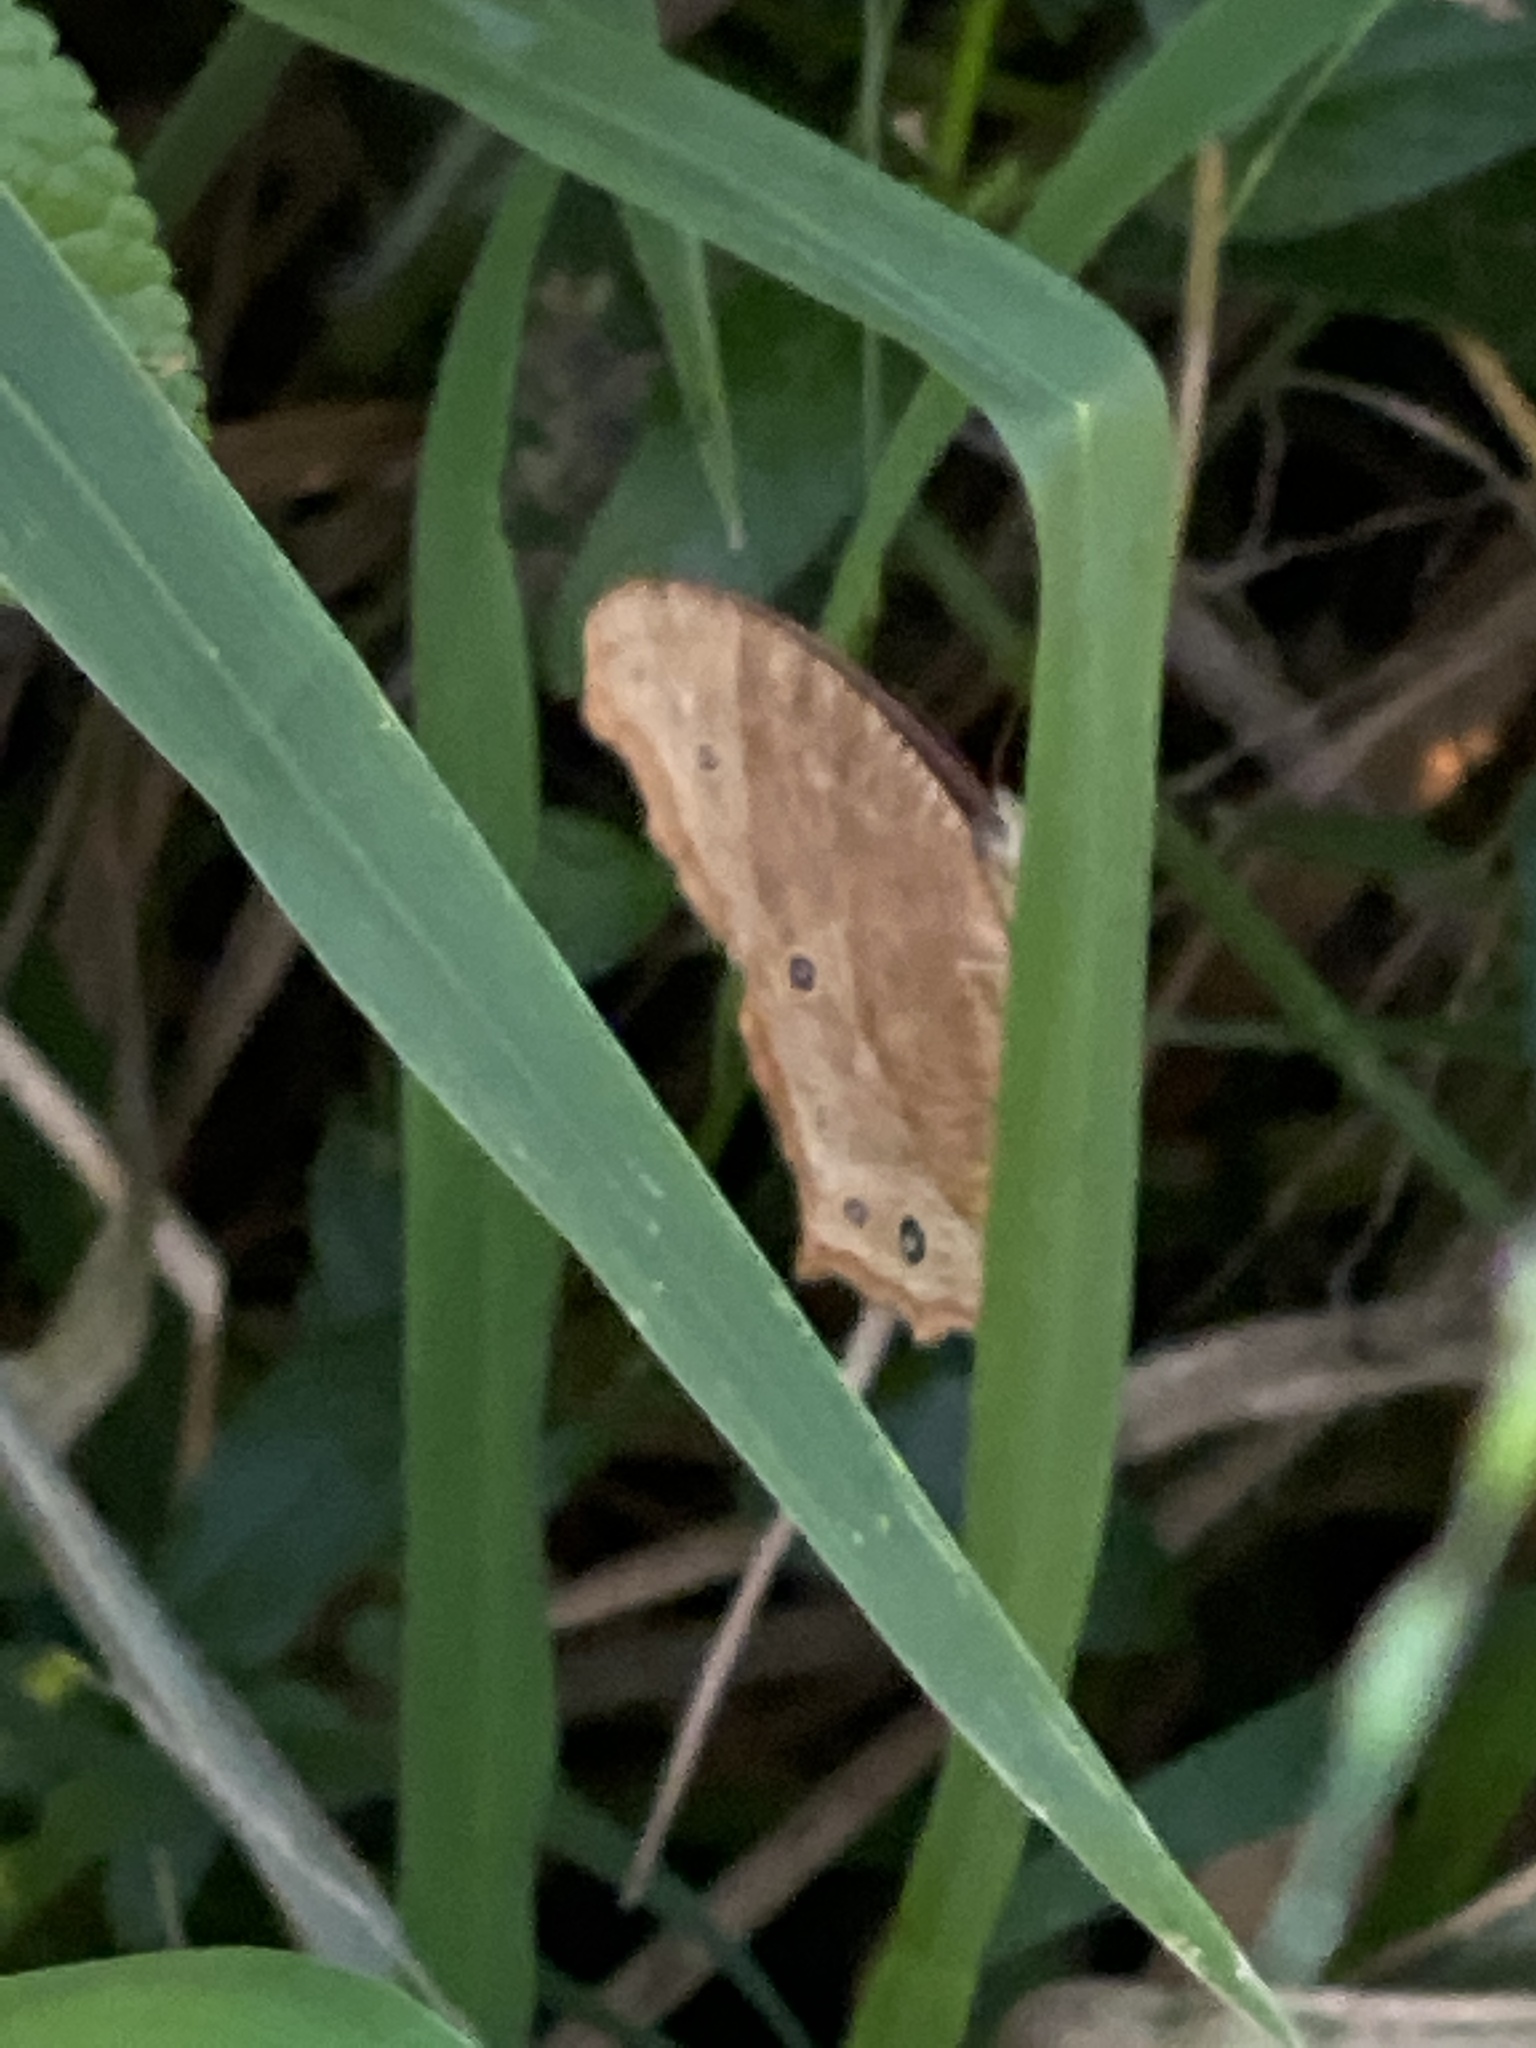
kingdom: Animalia
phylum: Arthropoda
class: Insecta
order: Lepidoptera
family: Nymphalidae
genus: Melanitis
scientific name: Melanitis leda
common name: Twilight brown
